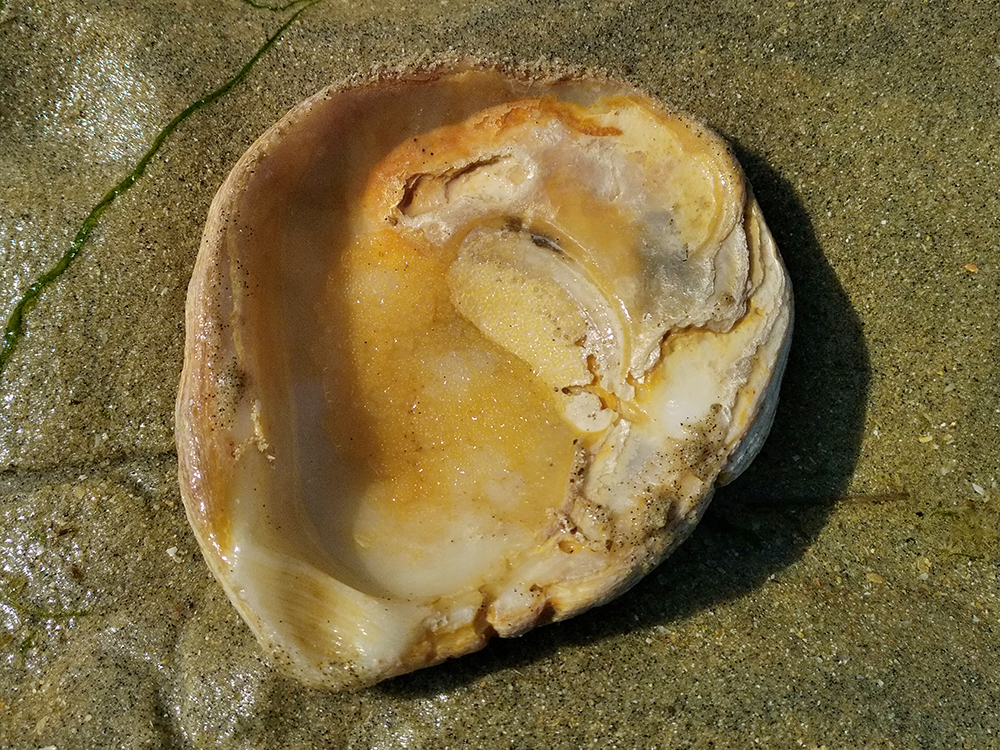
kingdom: Animalia
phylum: Mollusca
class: Bivalvia
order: Ostreida
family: Ostreidae
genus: Ostrea
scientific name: Ostrea edulis
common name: Flat oyster
